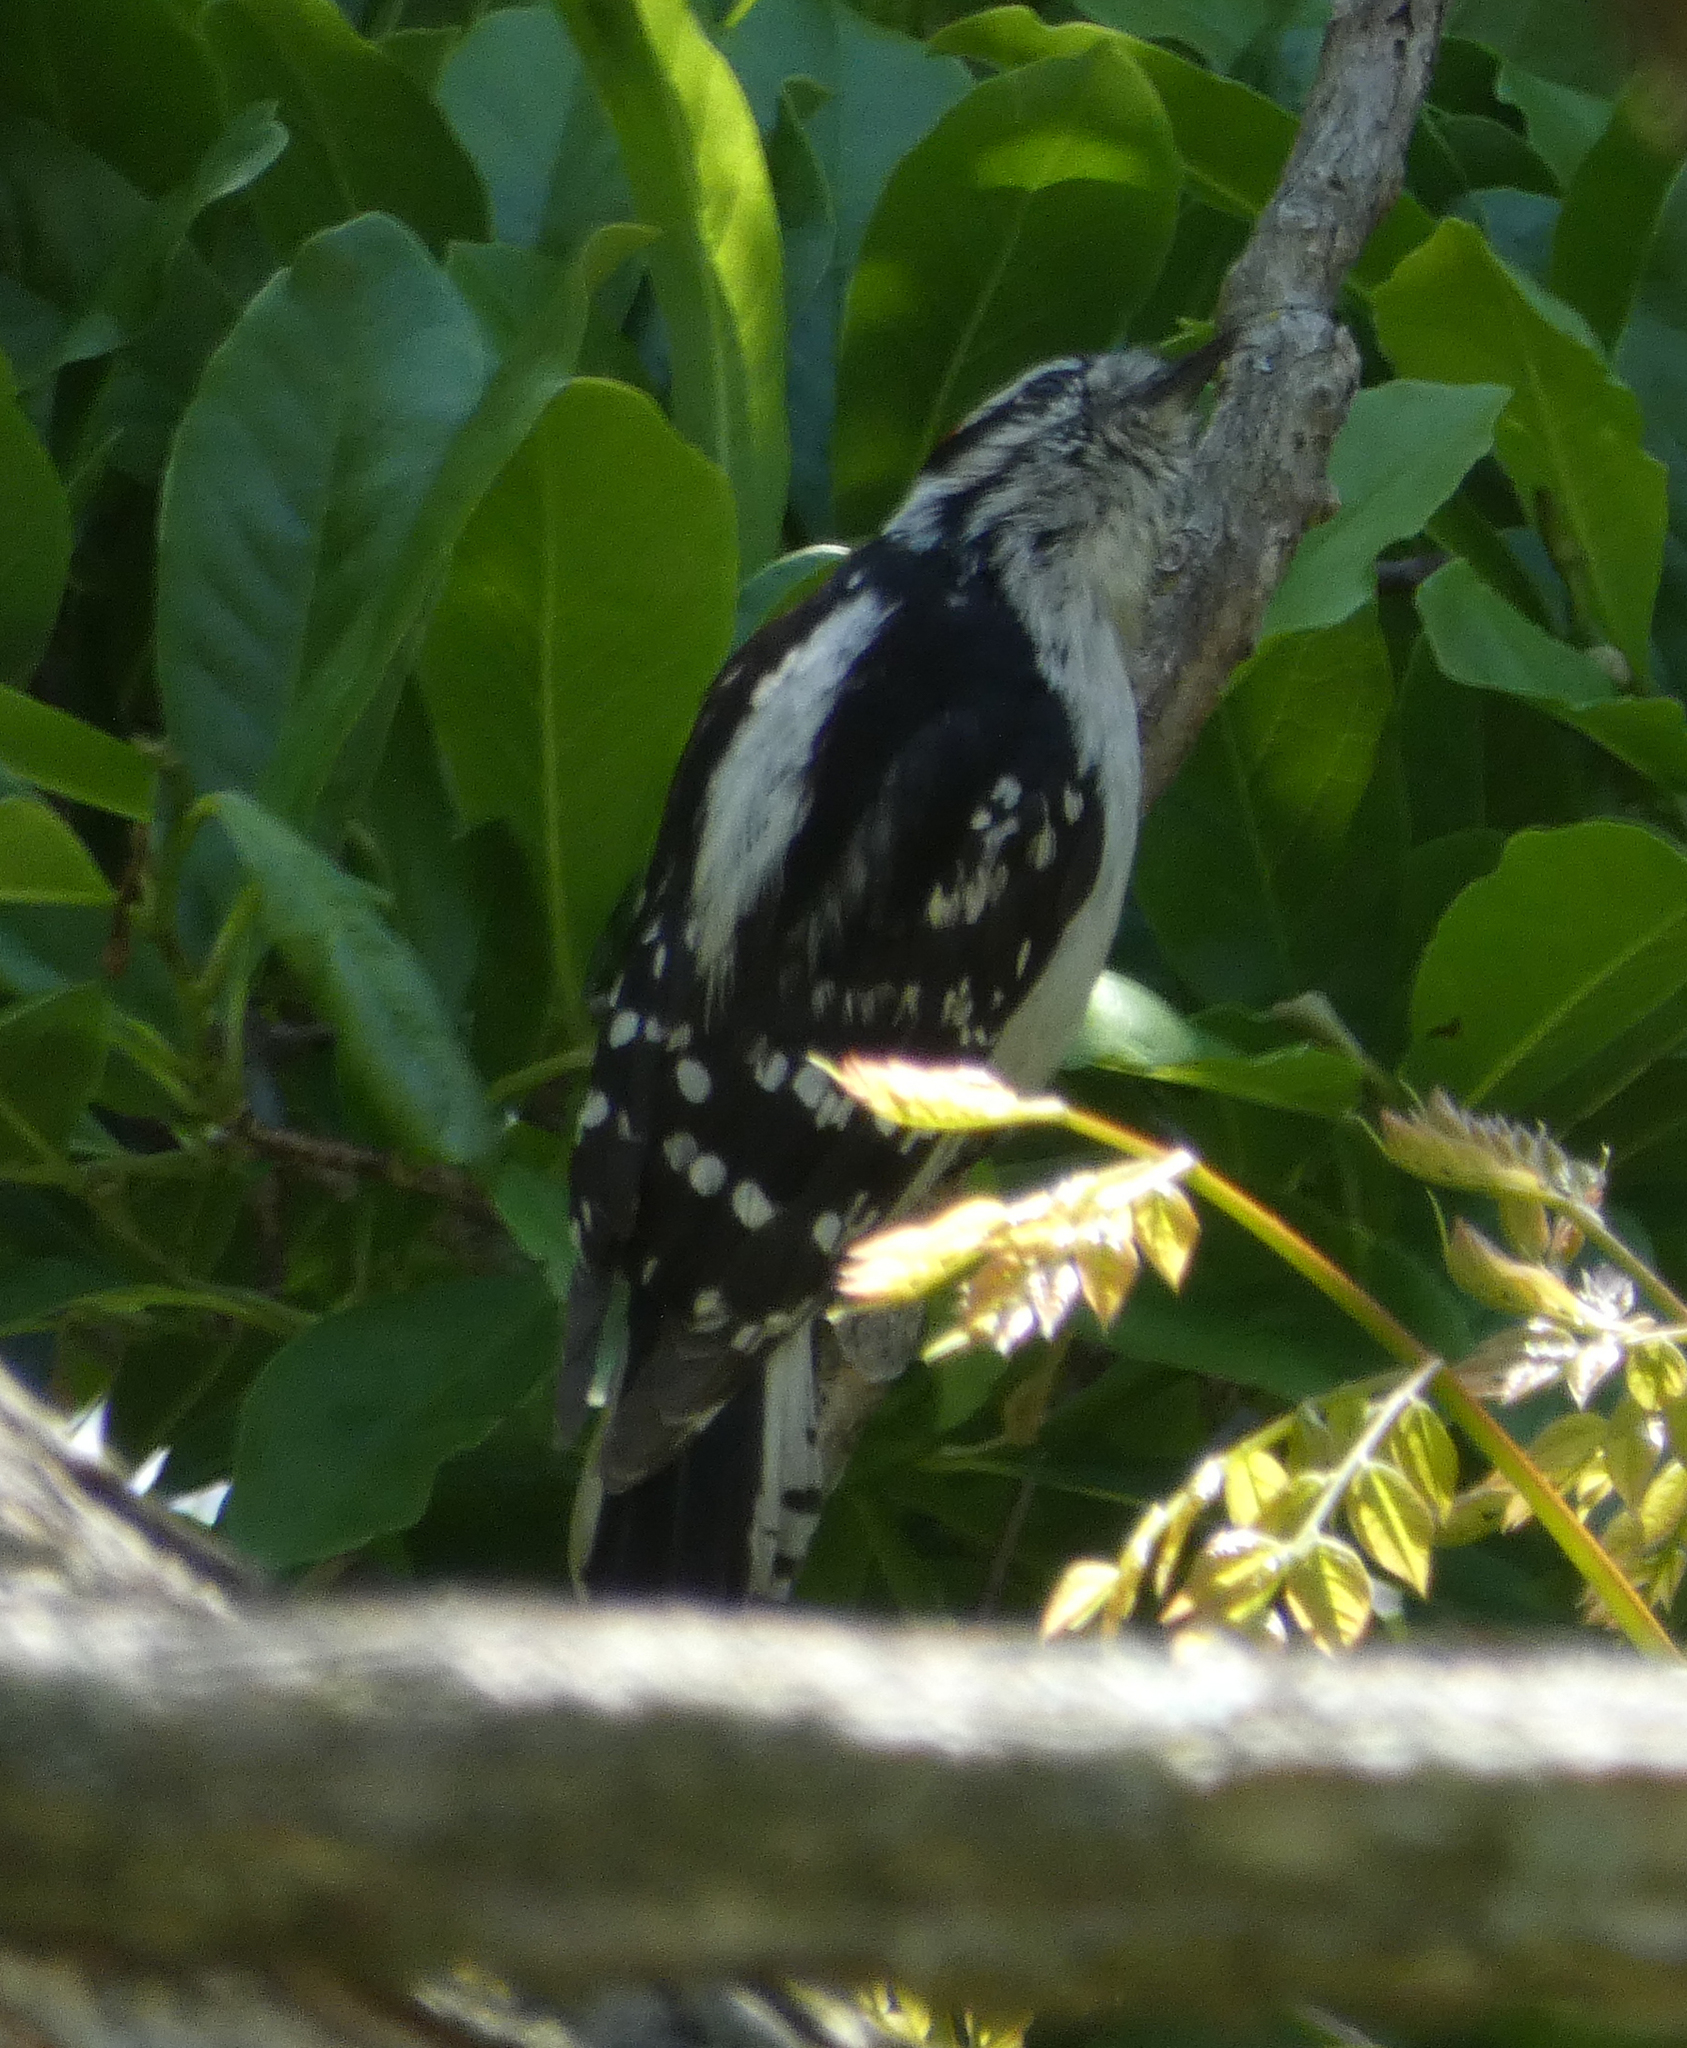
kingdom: Animalia
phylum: Chordata
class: Aves
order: Piciformes
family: Picidae
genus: Dryobates
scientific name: Dryobates pubescens
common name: Downy woodpecker
